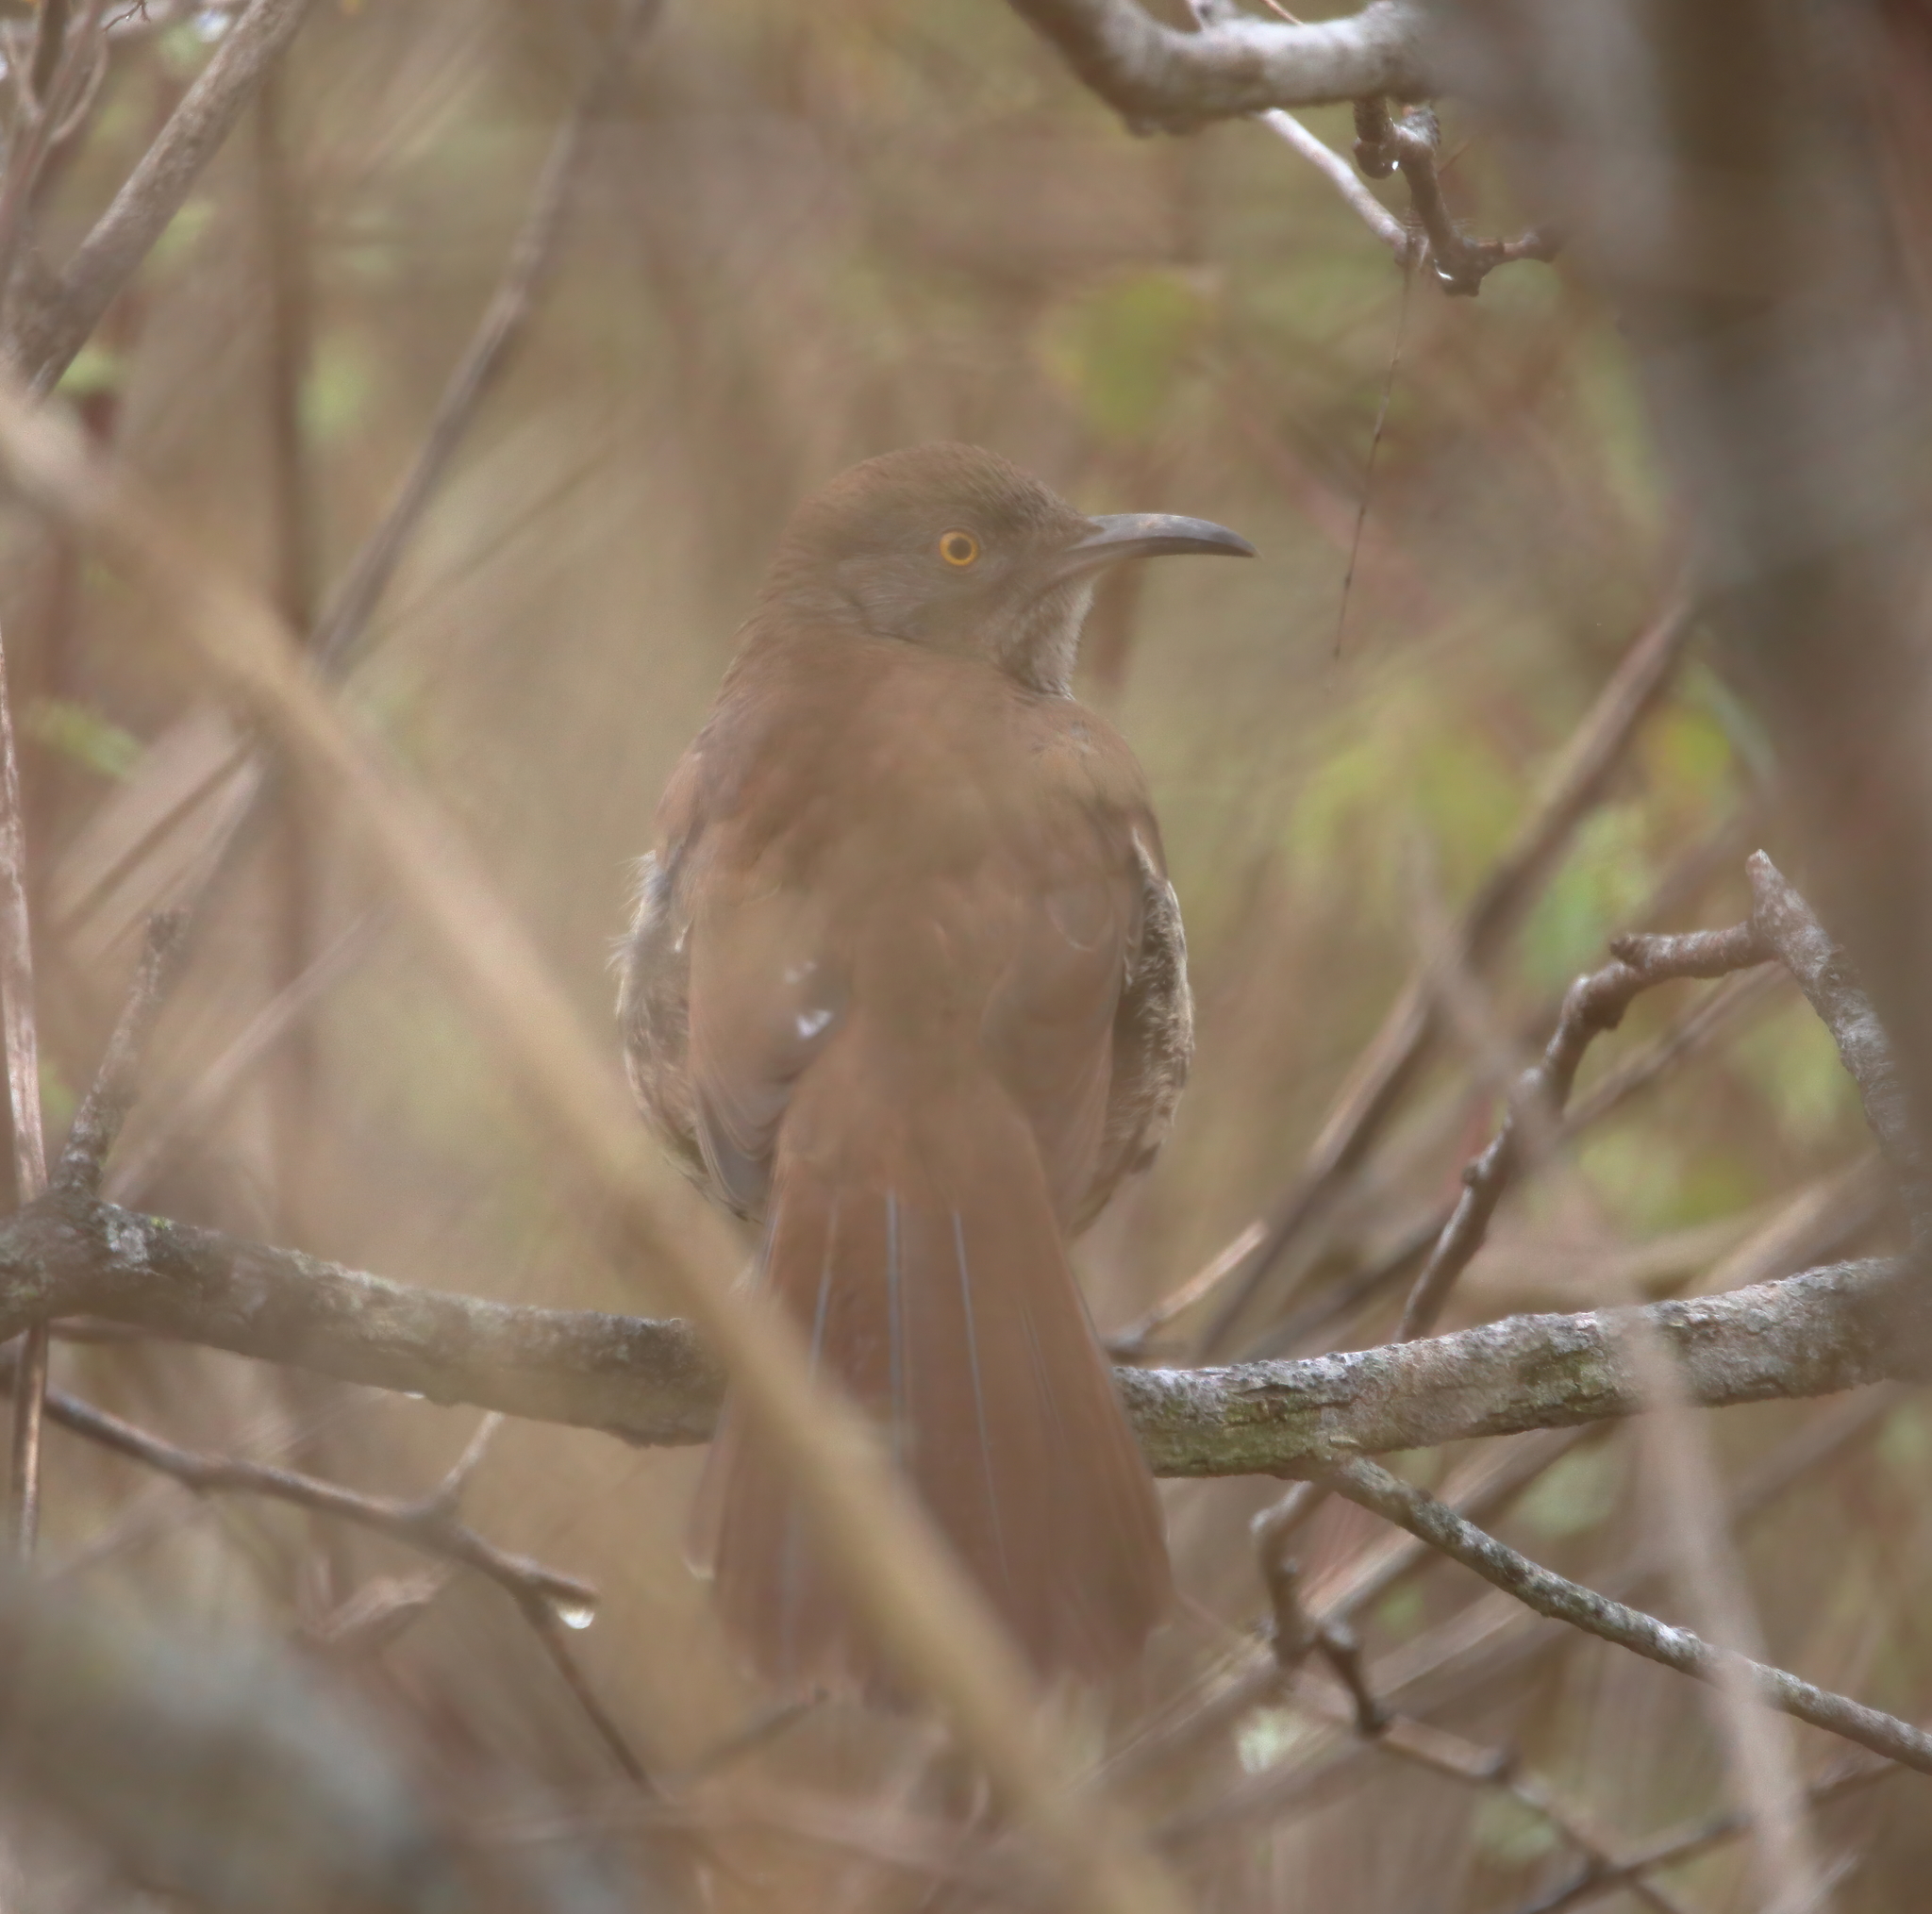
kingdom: Animalia
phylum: Chordata
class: Aves
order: Passeriformes
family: Mimidae
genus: Toxostoma
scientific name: Toxostoma longirostre
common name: Long-billed thrasher
